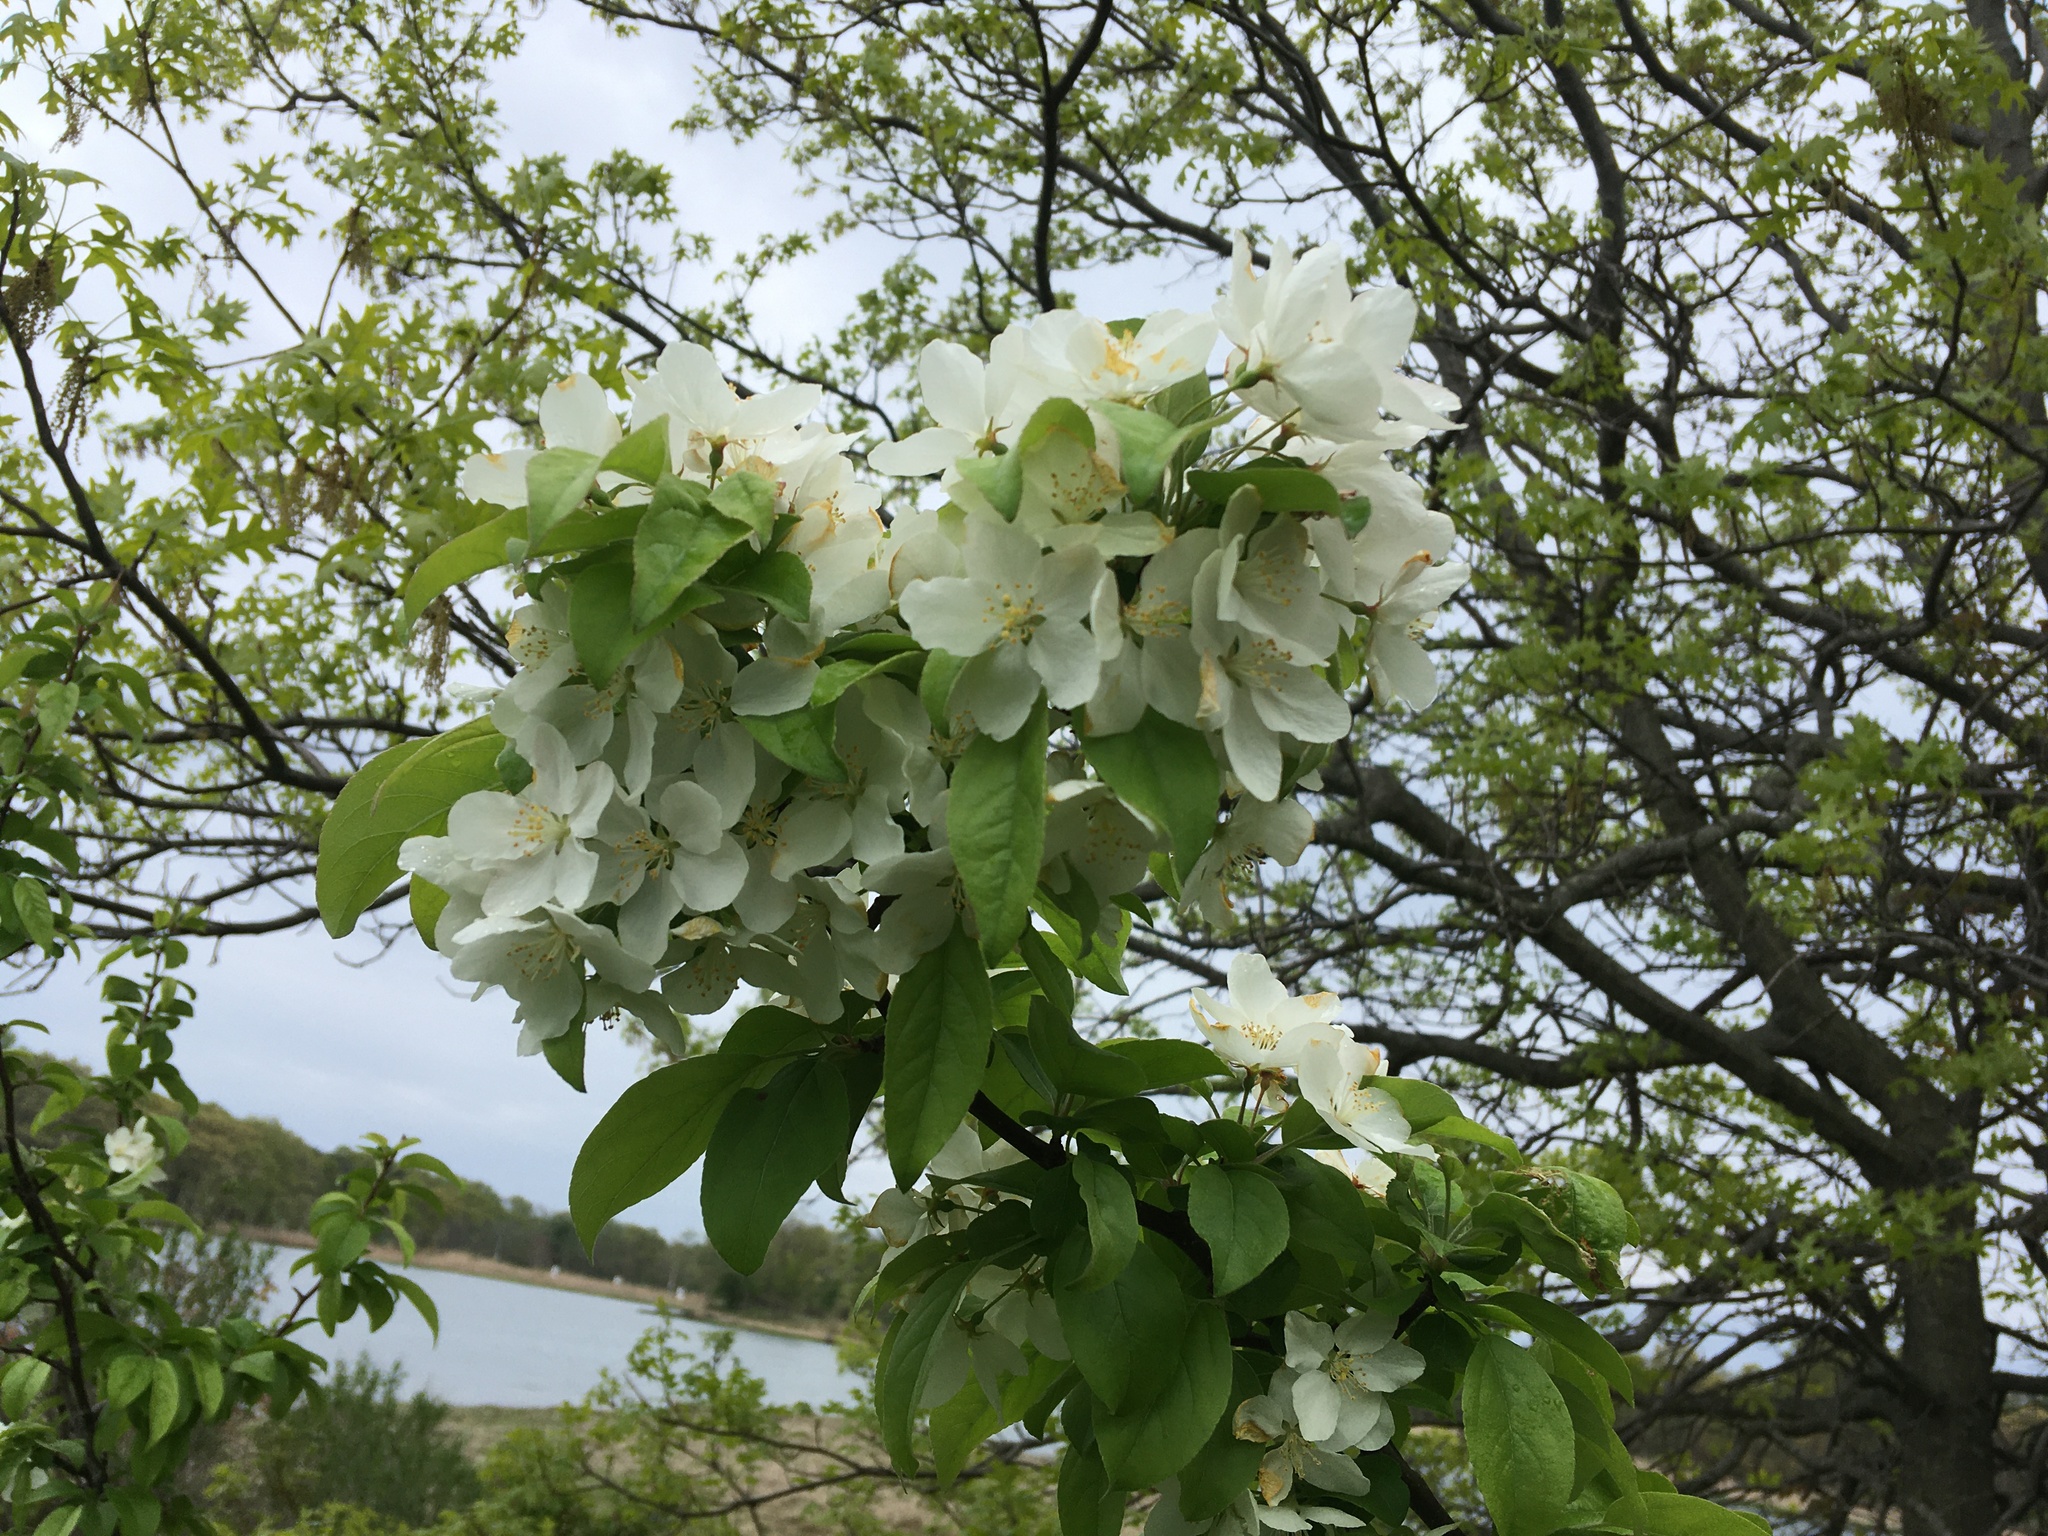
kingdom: Plantae
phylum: Tracheophyta
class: Magnoliopsida
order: Rosales
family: Rosaceae
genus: Malus
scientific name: Malus domestica
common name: Apple
